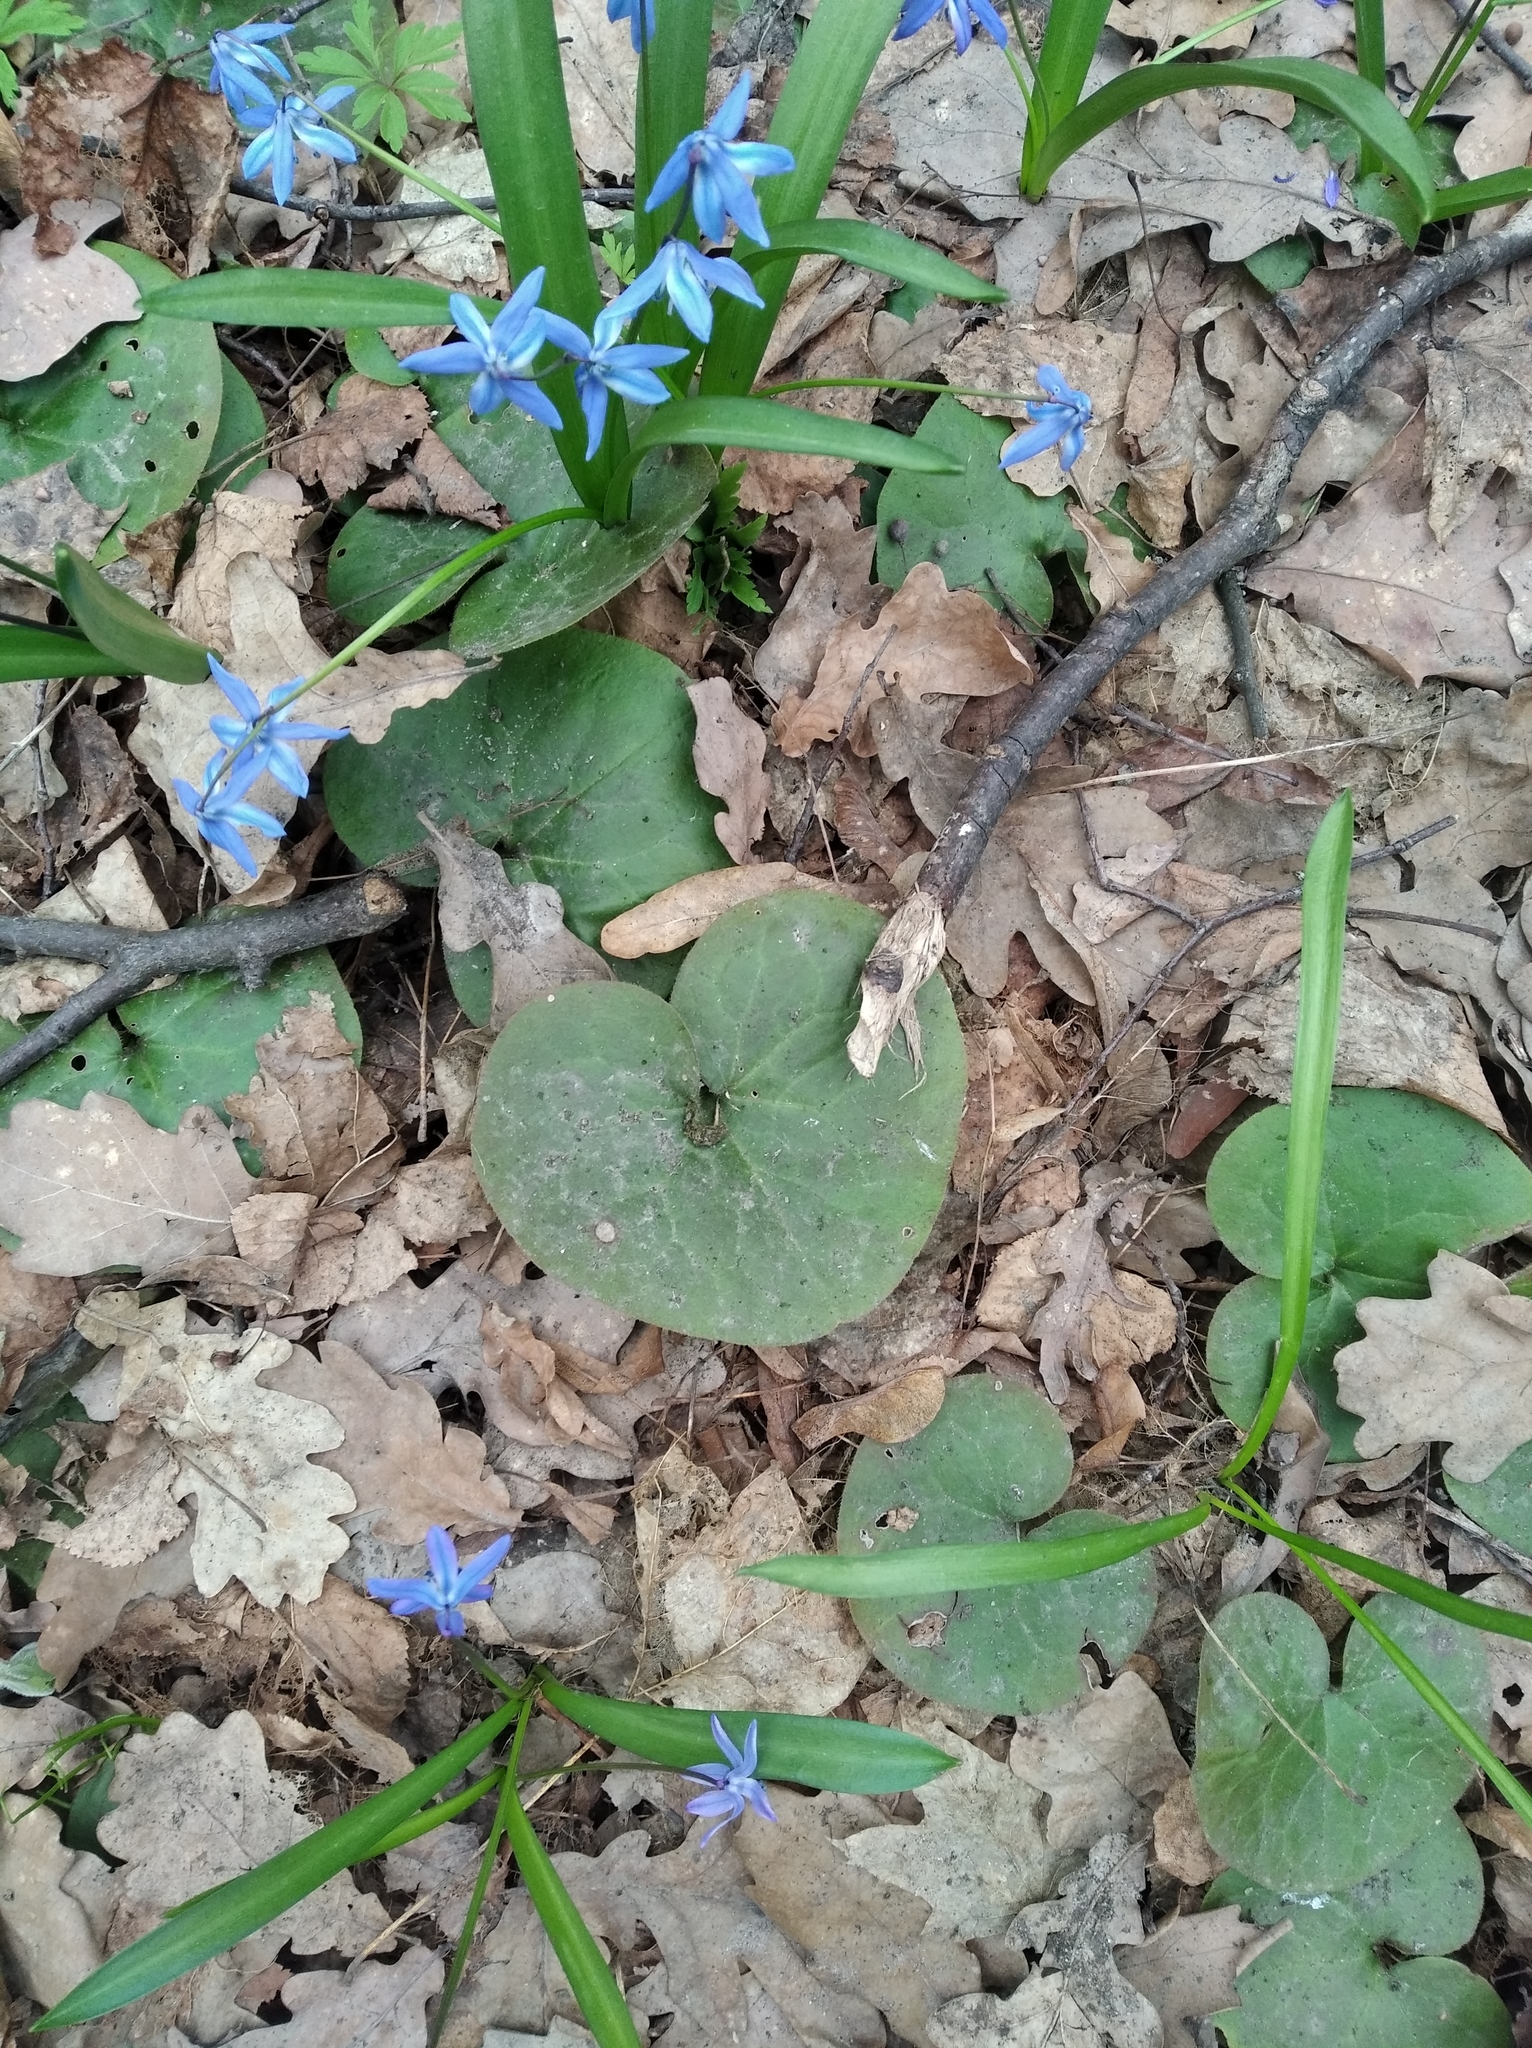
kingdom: Plantae
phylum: Tracheophyta
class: Magnoliopsida
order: Piperales
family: Aristolochiaceae
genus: Asarum
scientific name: Asarum europaeum
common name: Asarabacca
